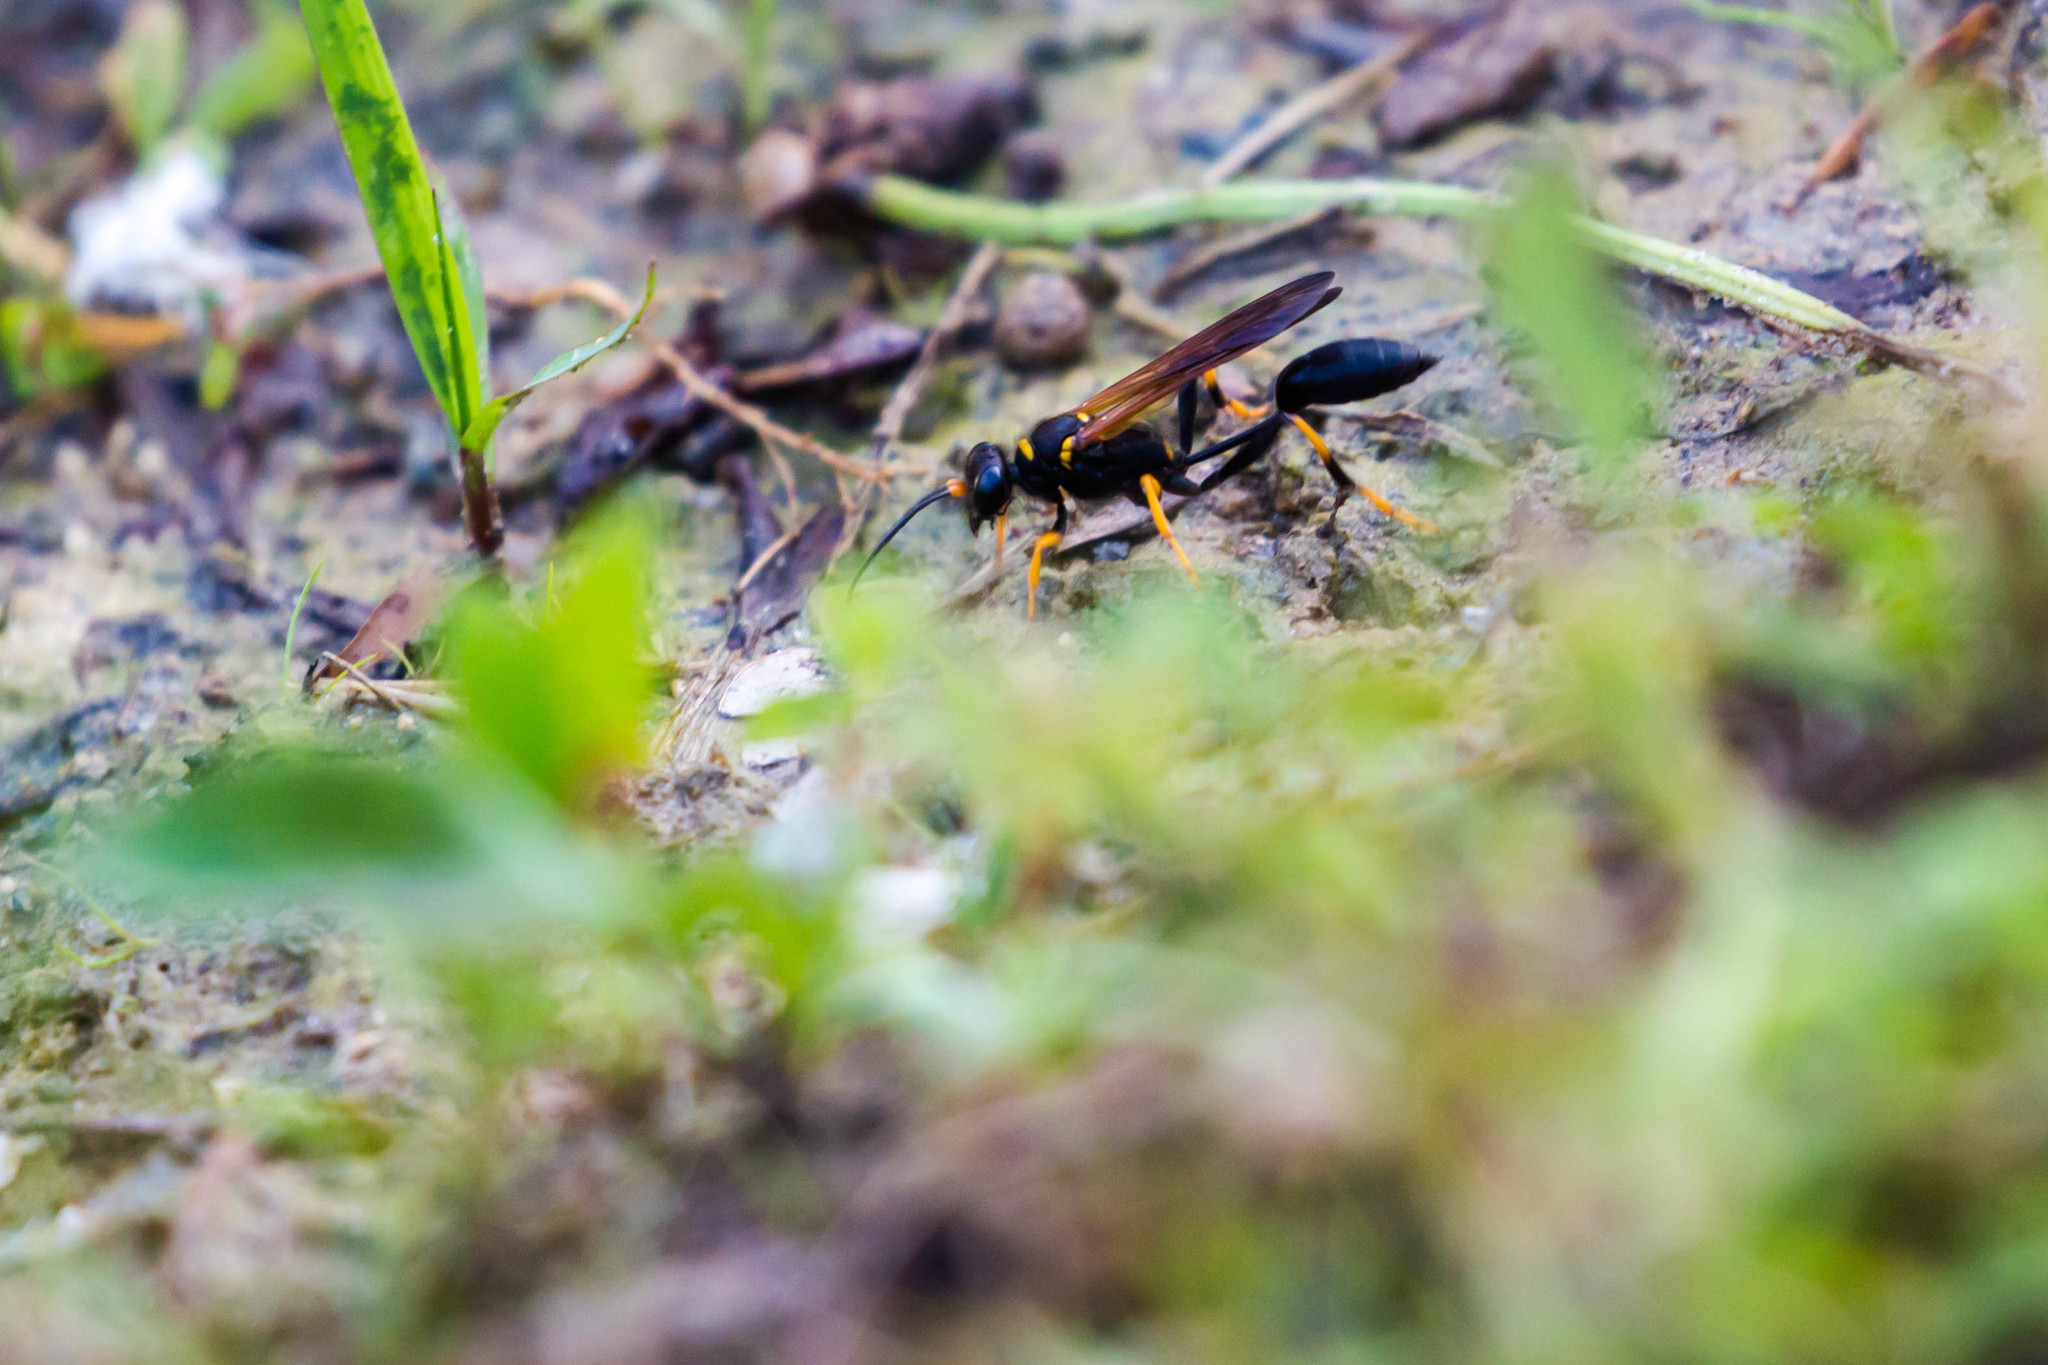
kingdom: Animalia
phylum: Arthropoda
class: Insecta
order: Hymenoptera
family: Sphecidae
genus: Sceliphron
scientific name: Sceliphron caementarium
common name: Mud dauber
